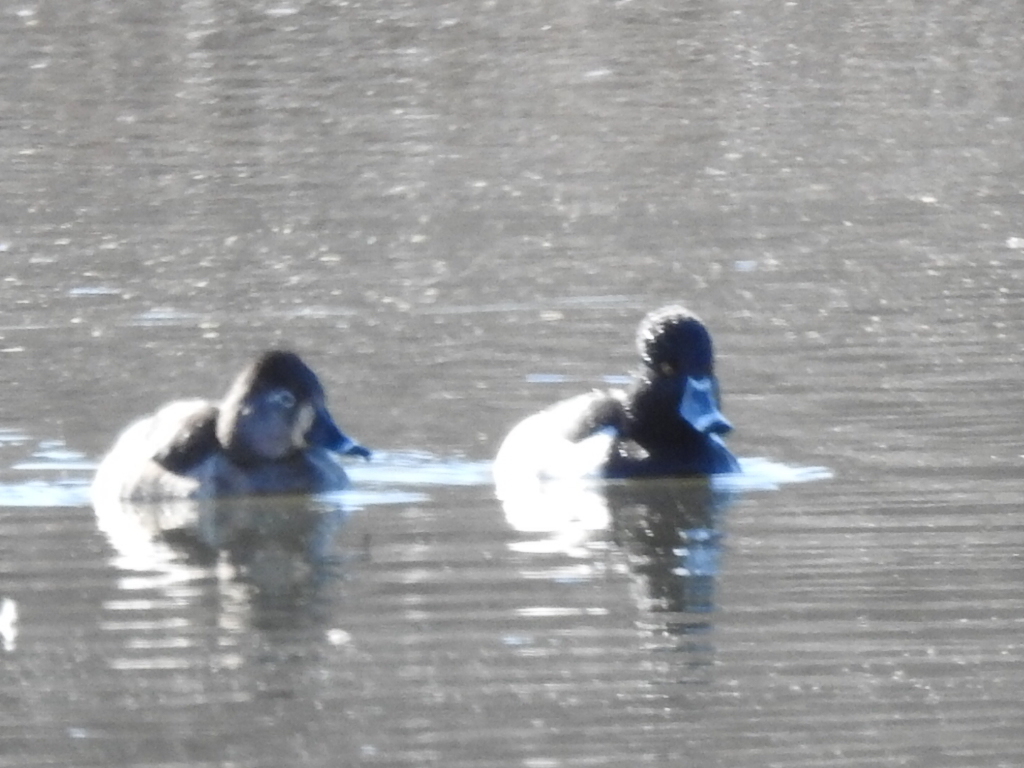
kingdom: Animalia
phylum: Chordata
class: Aves
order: Anseriformes
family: Anatidae
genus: Aythya
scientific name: Aythya collaris
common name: Ring-necked duck
